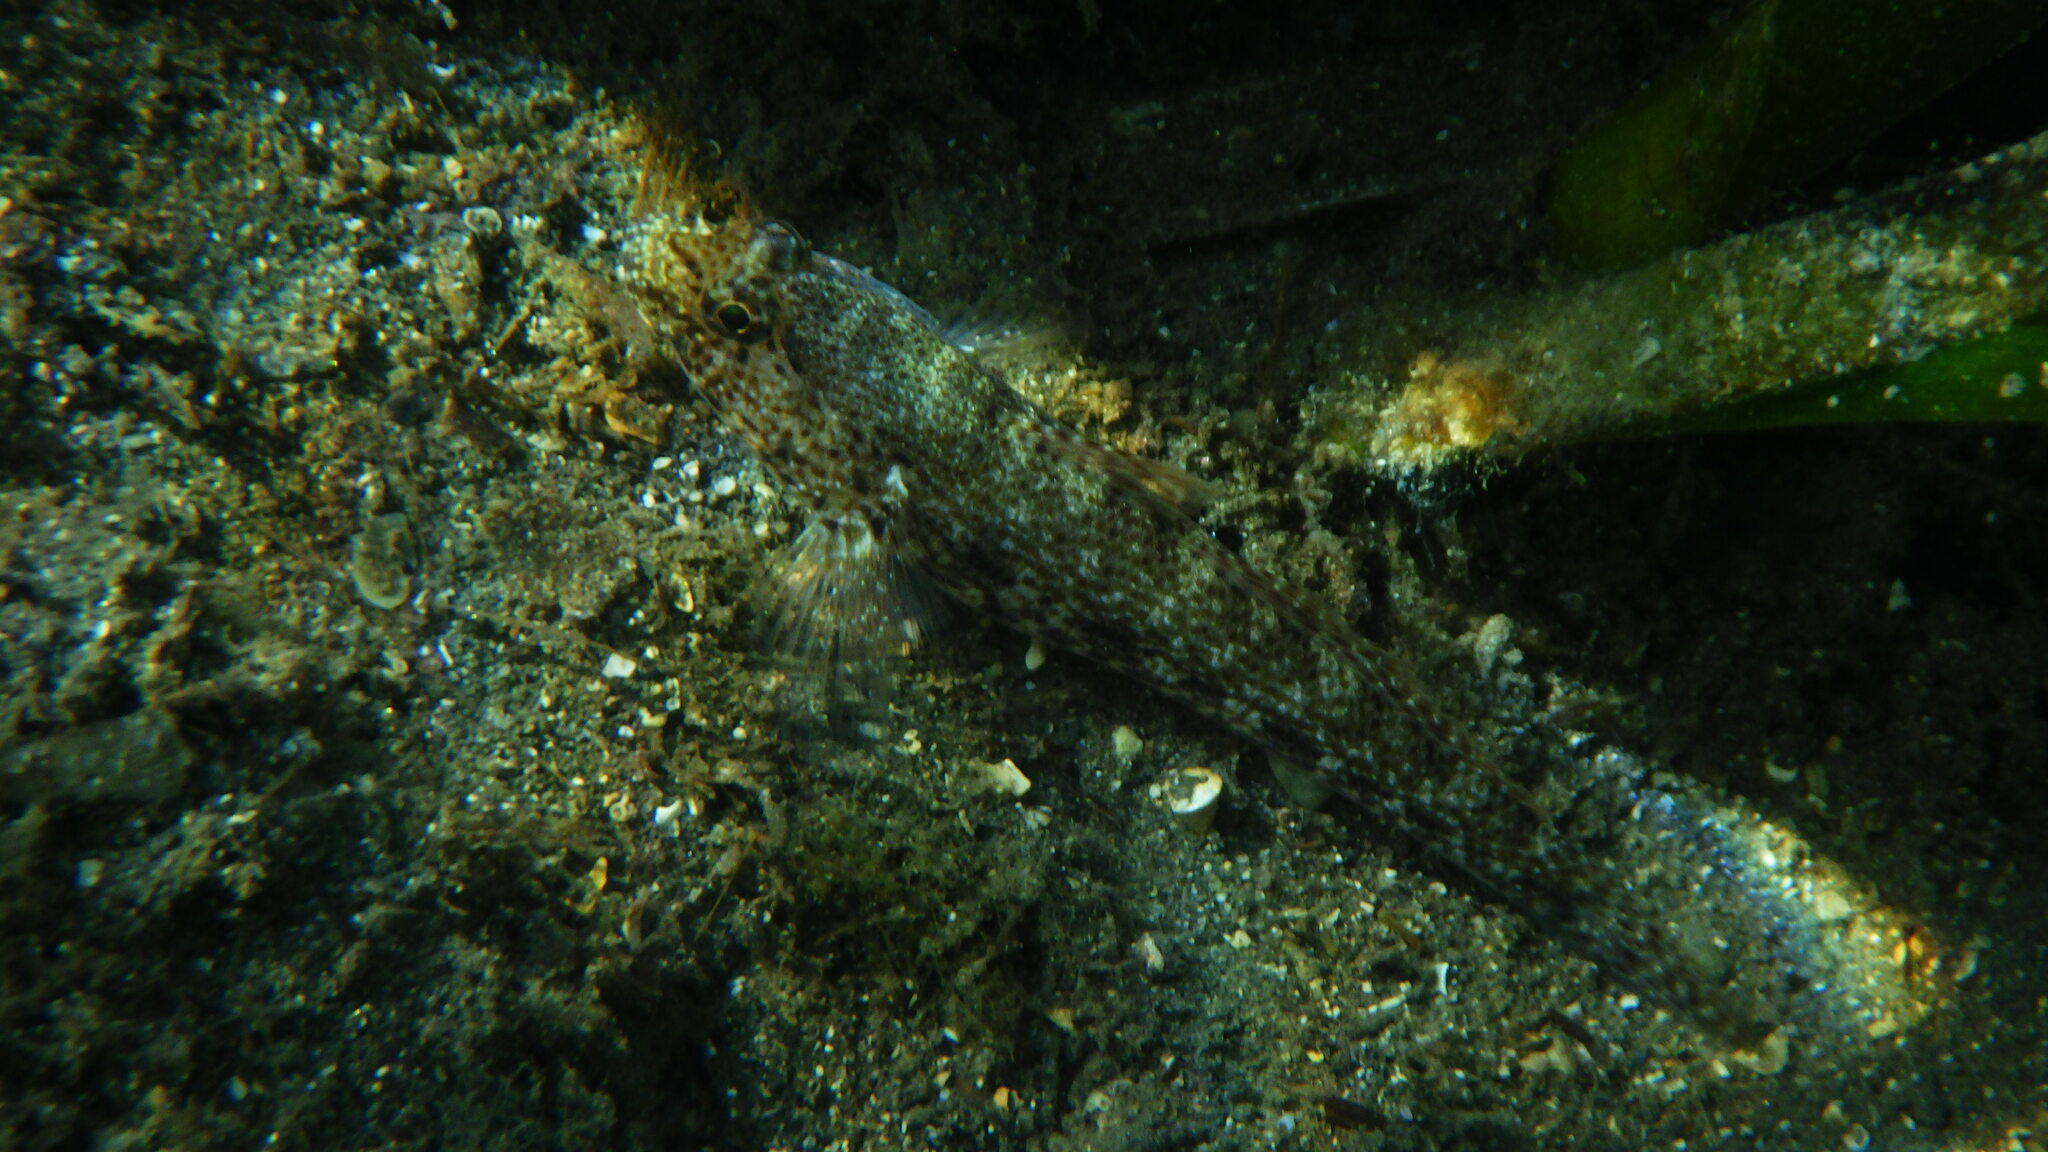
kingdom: Animalia
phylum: Chordata
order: Perciformes
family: Gobiidae
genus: Gobius
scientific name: Gobius incognitus
